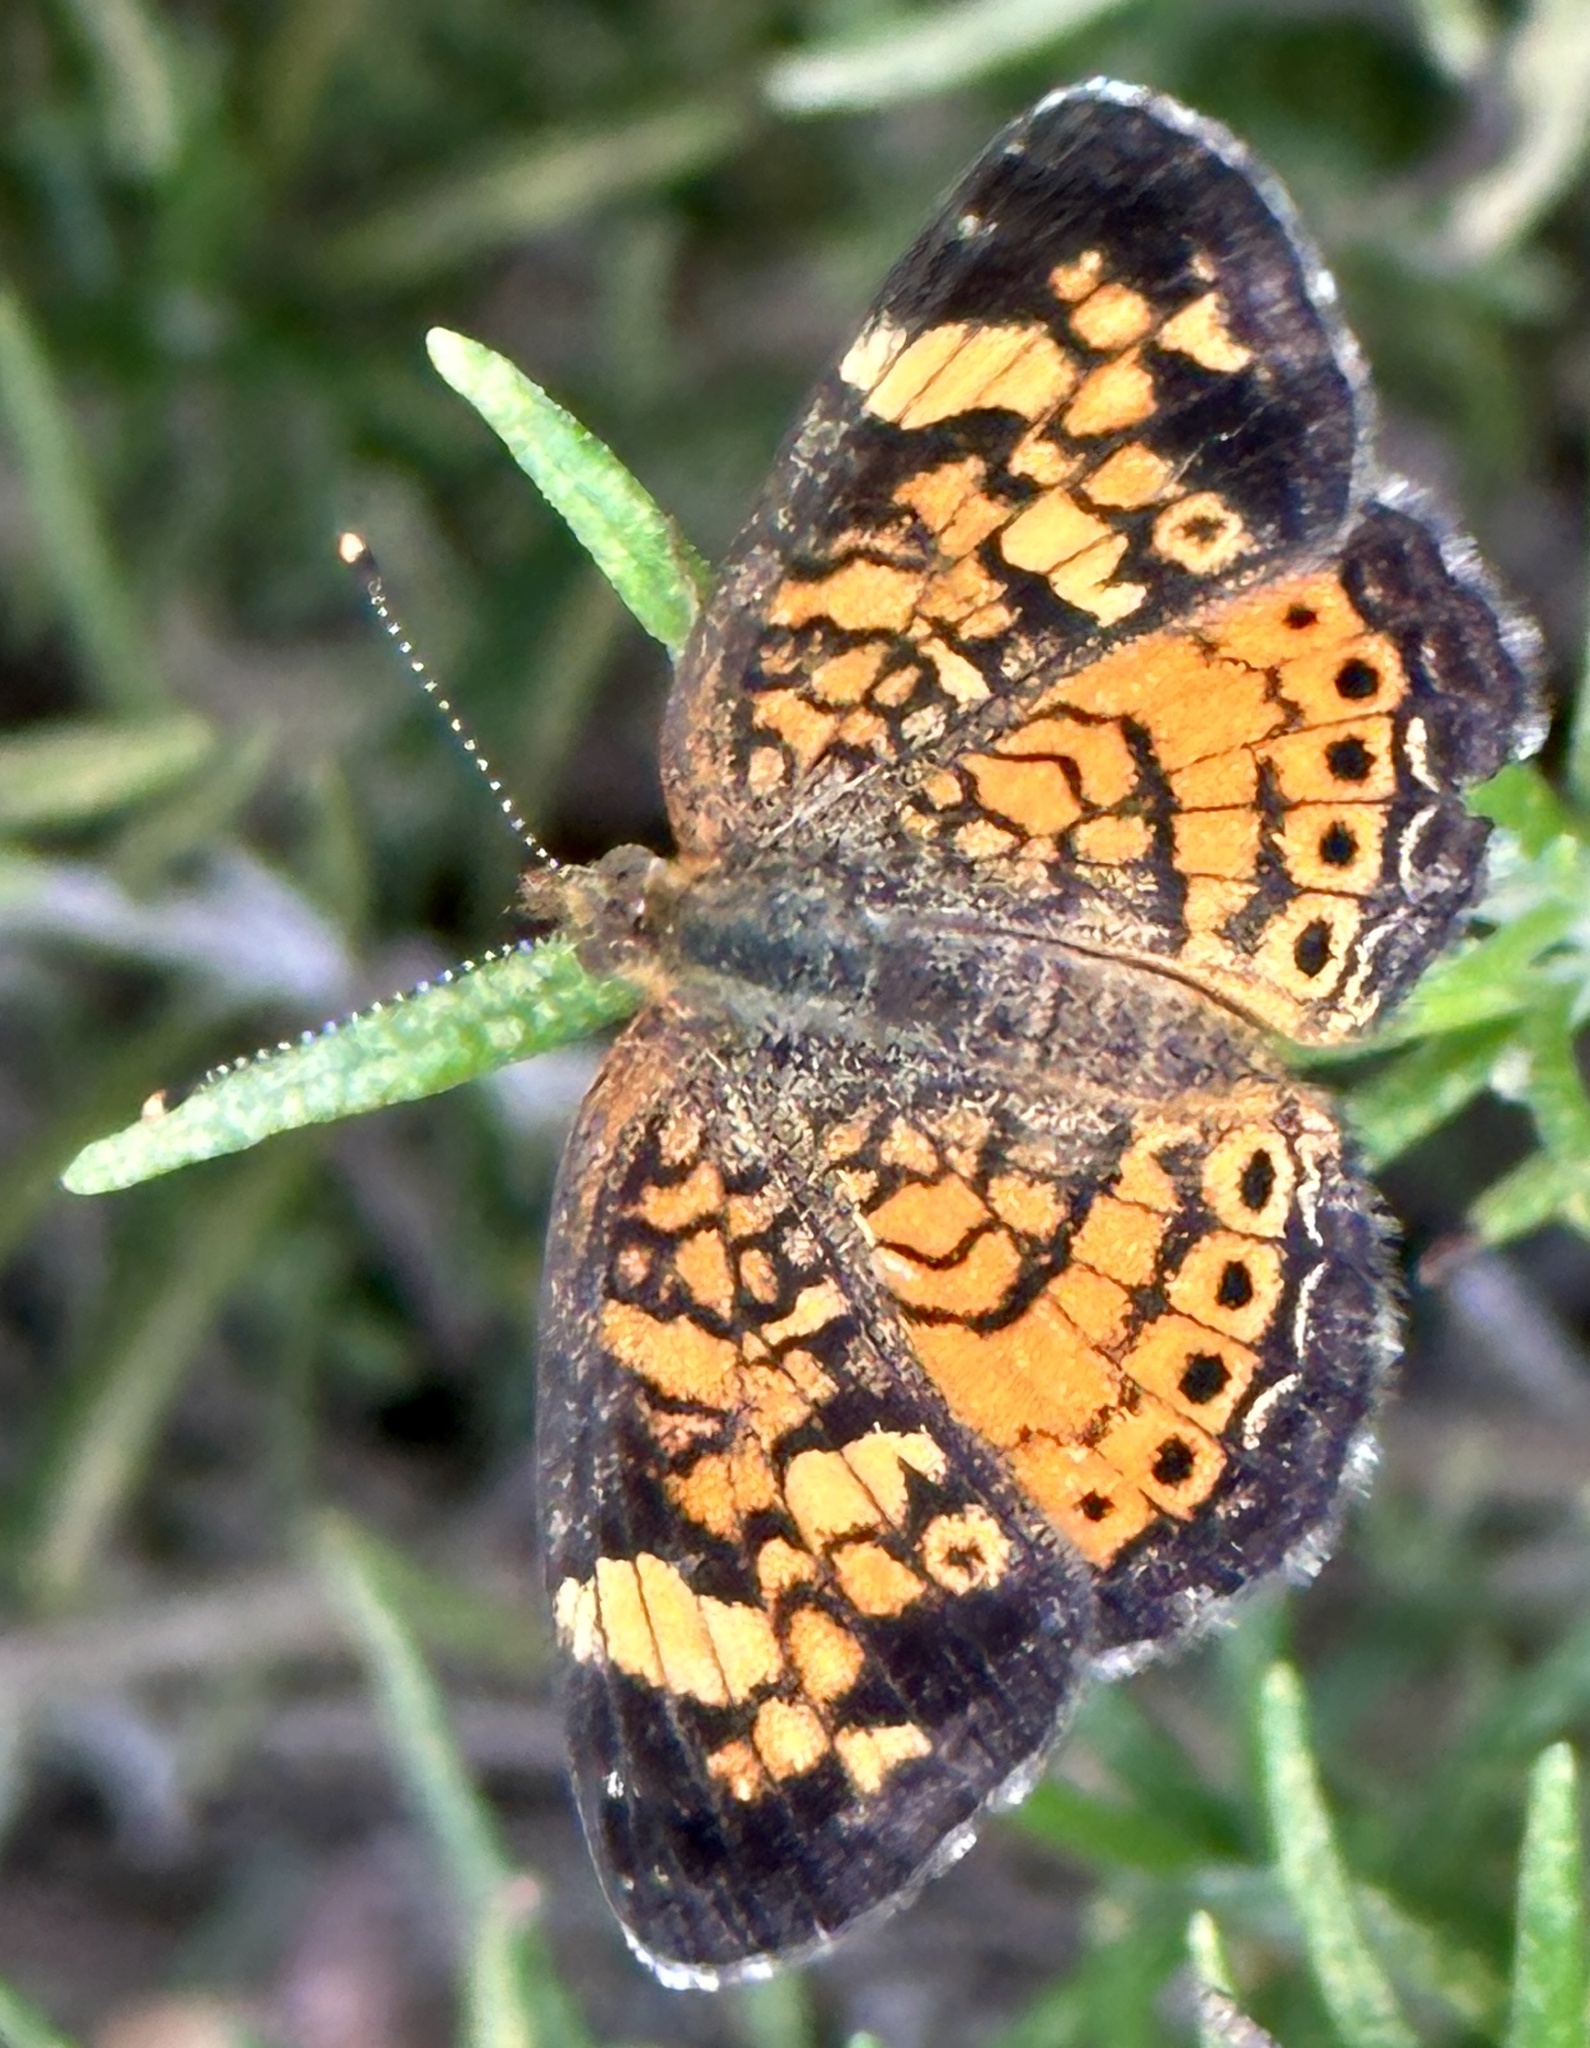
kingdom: Animalia
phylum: Arthropoda
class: Insecta
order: Lepidoptera
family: Nymphalidae
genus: Phyciodes
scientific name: Phyciodes tharos
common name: Pearl crescent
